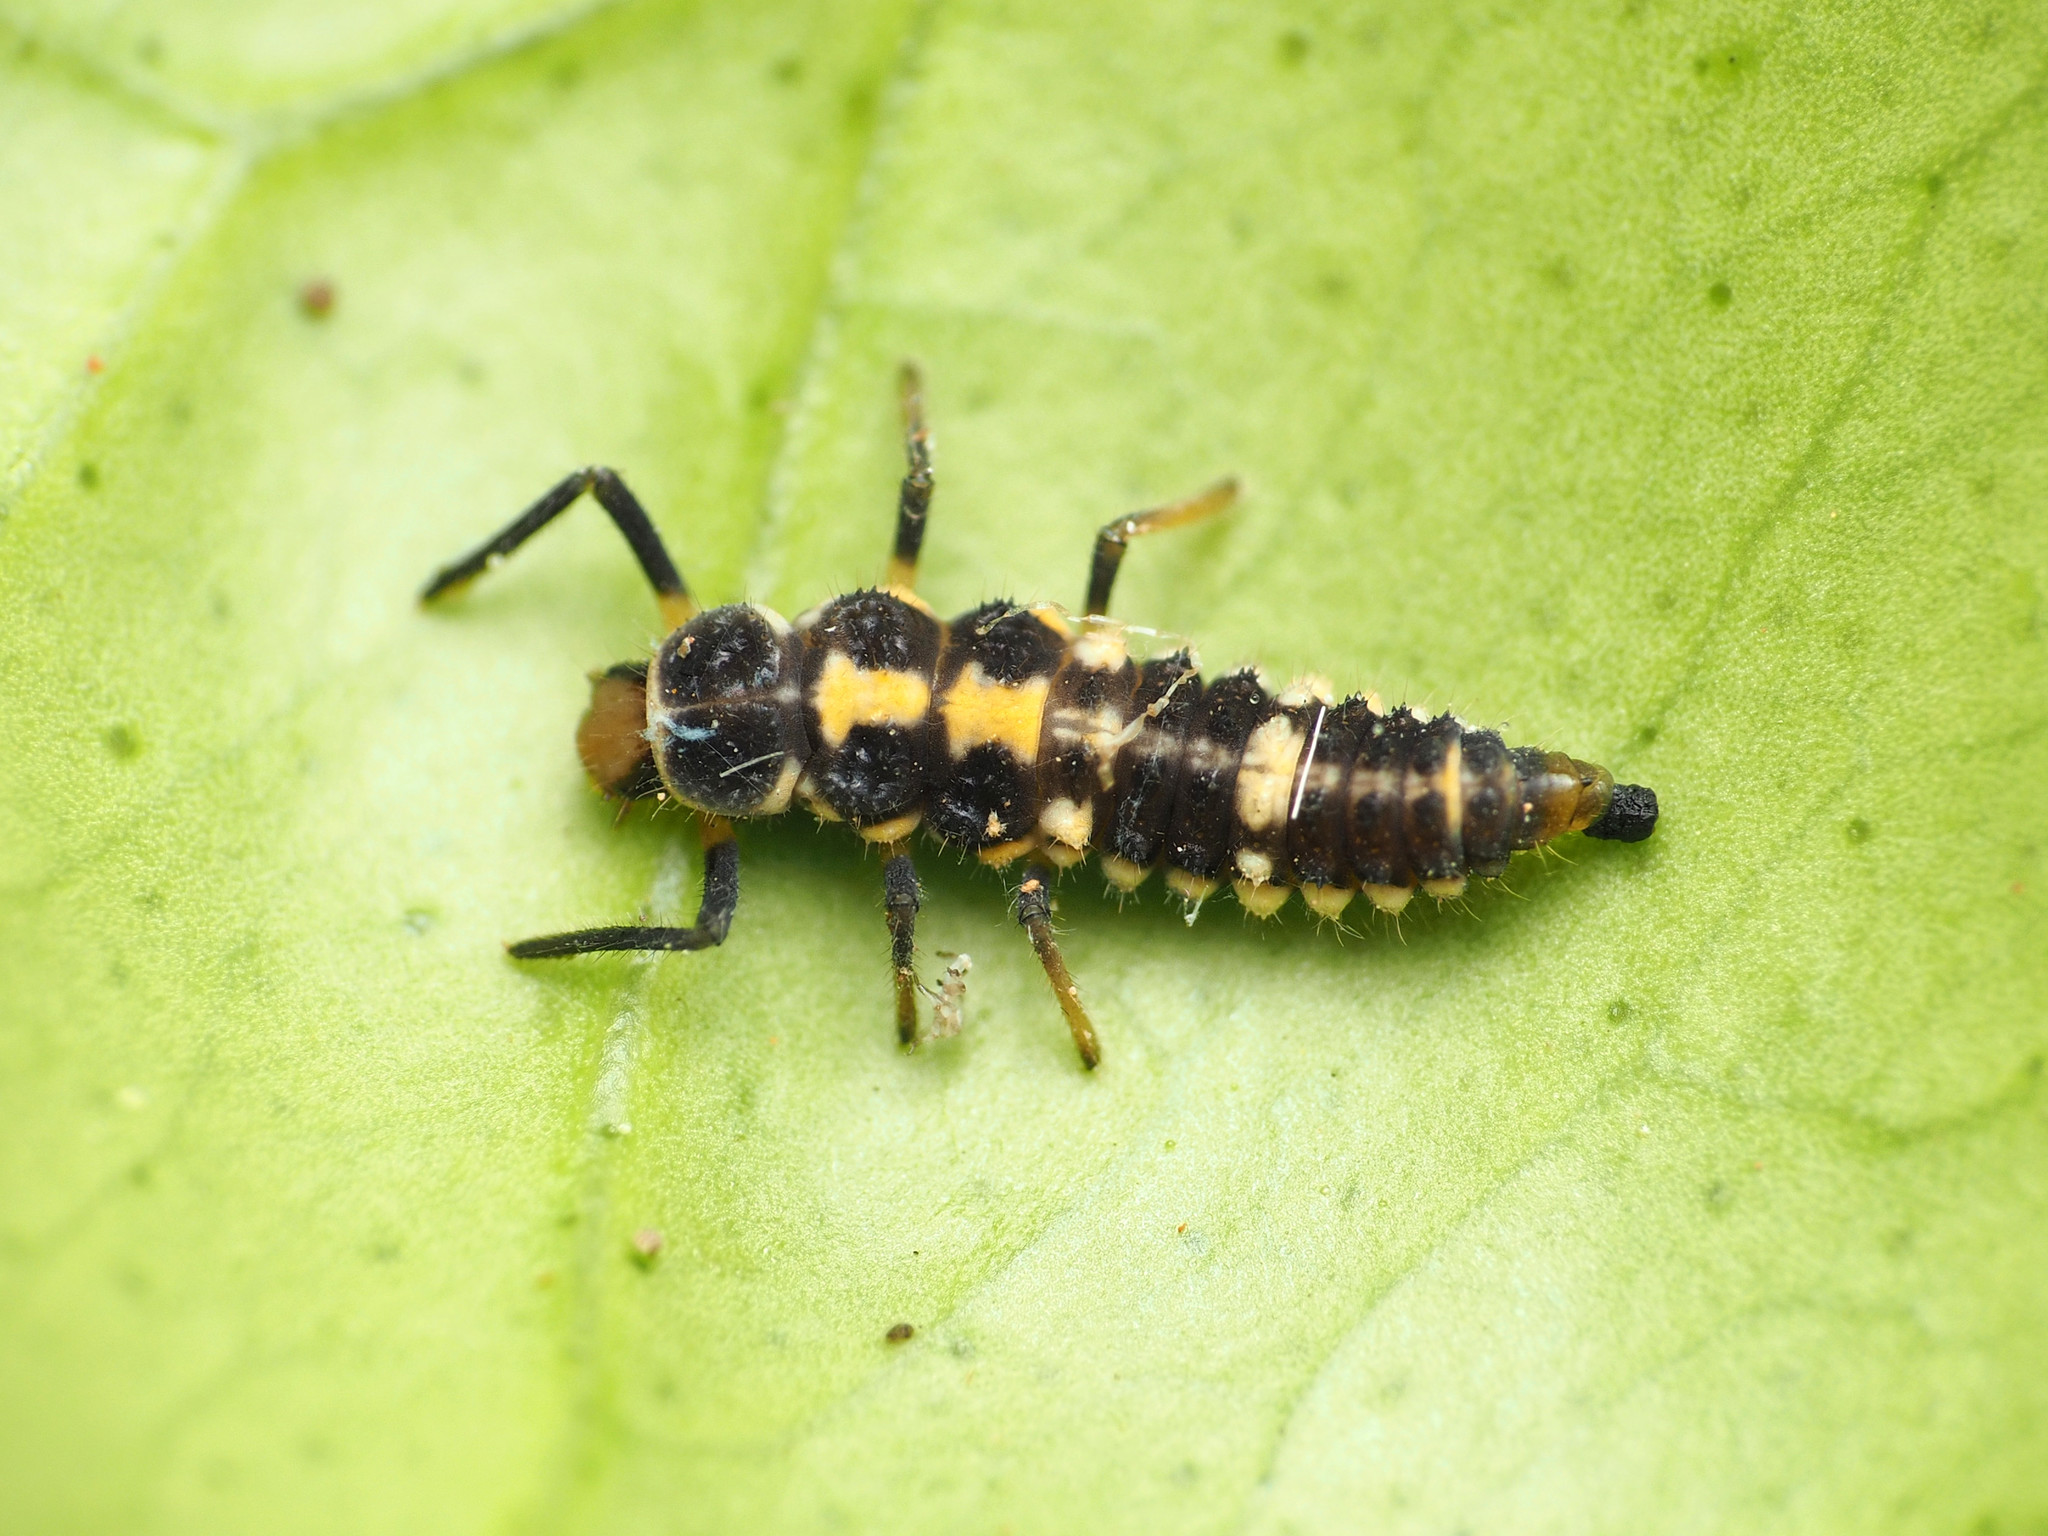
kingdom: Animalia
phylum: Arthropoda
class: Insecta
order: Coleoptera
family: Coccinellidae
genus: Propylaea
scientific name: Propylaea quatuordecimpunctata
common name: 14-spotted ladybird beetle
